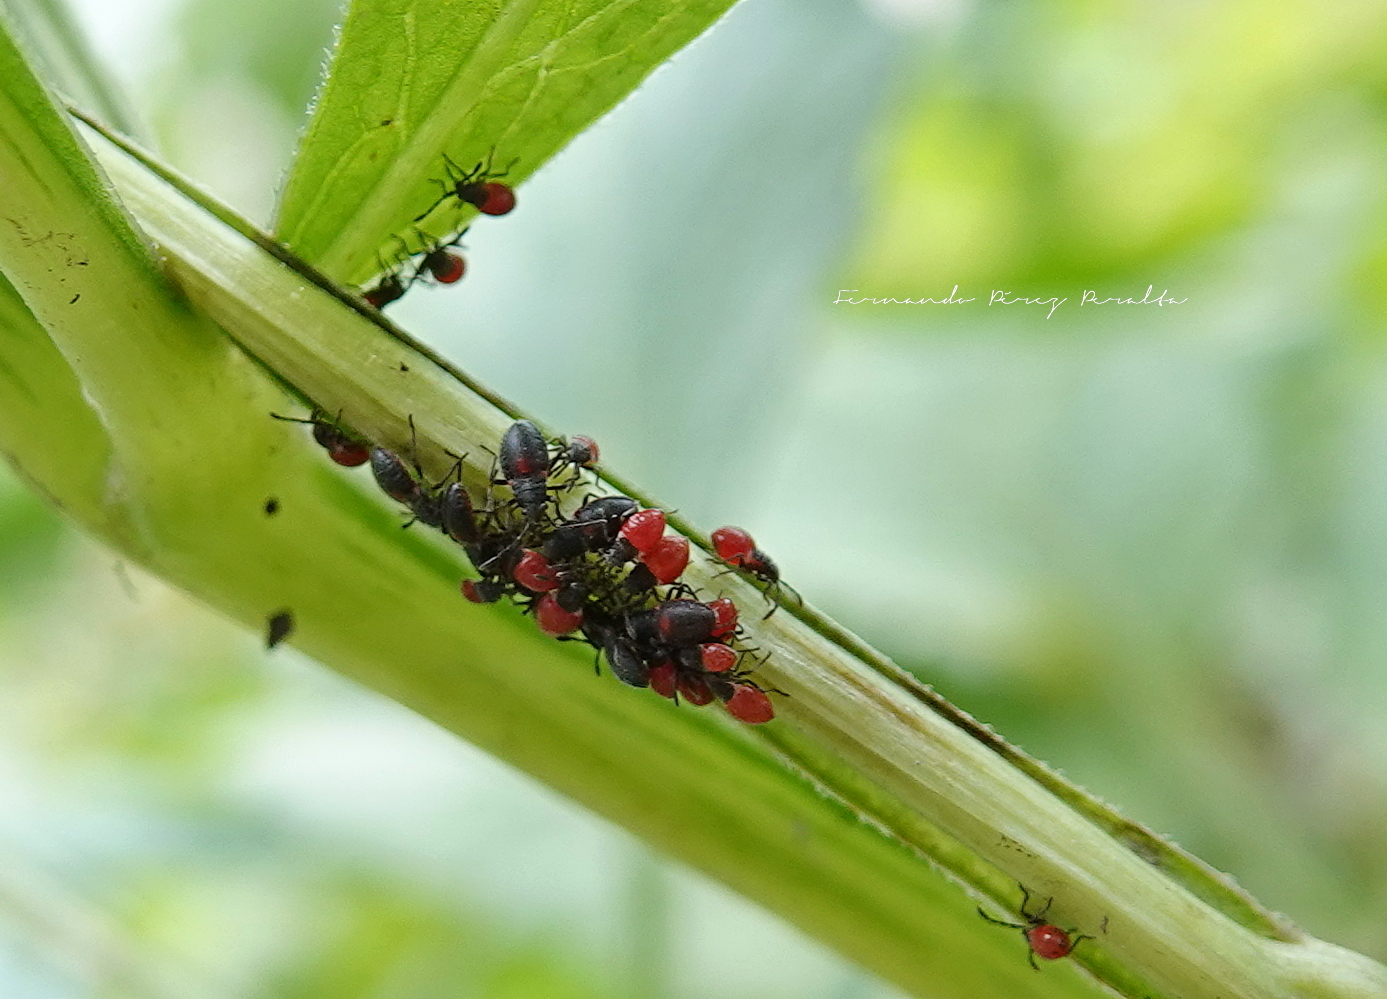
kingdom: Animalia
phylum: Arthropoda
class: Insecta
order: Hemiptera
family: Largidae
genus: Stenomacra
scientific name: Stenomacra marginella
